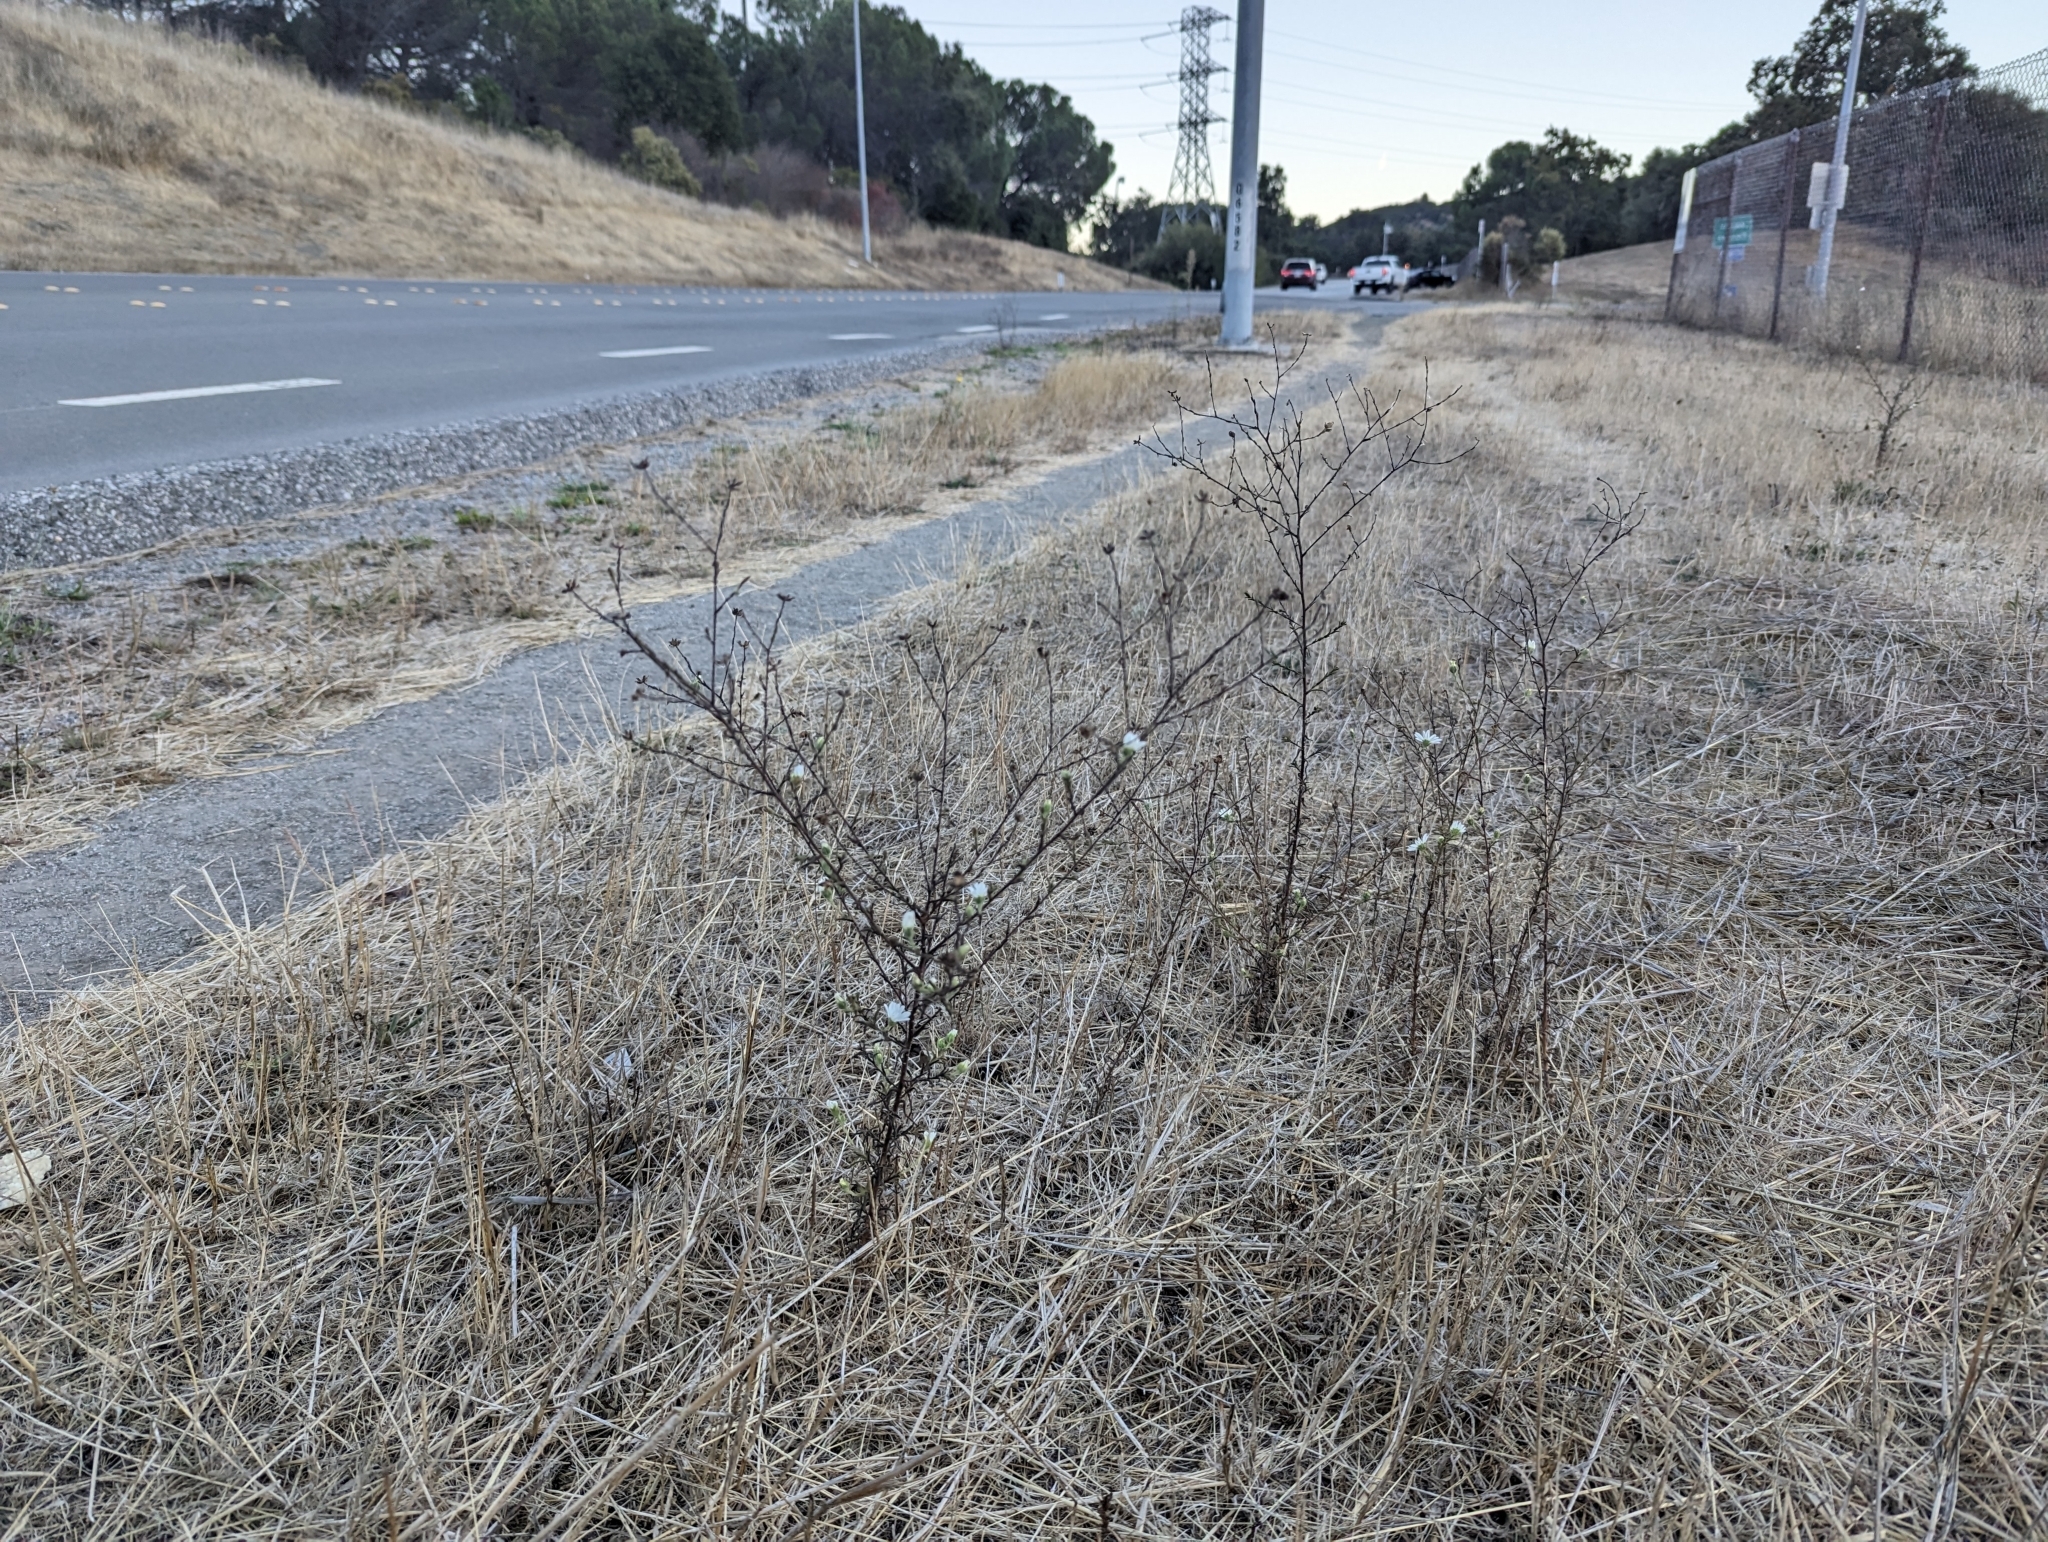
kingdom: Plantae
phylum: Tracheophyta
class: Magnoliopsida
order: Asterales
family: Asteraceae
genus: Hemizonia
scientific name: Hemizonia congesta
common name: Hayfield tarweed
